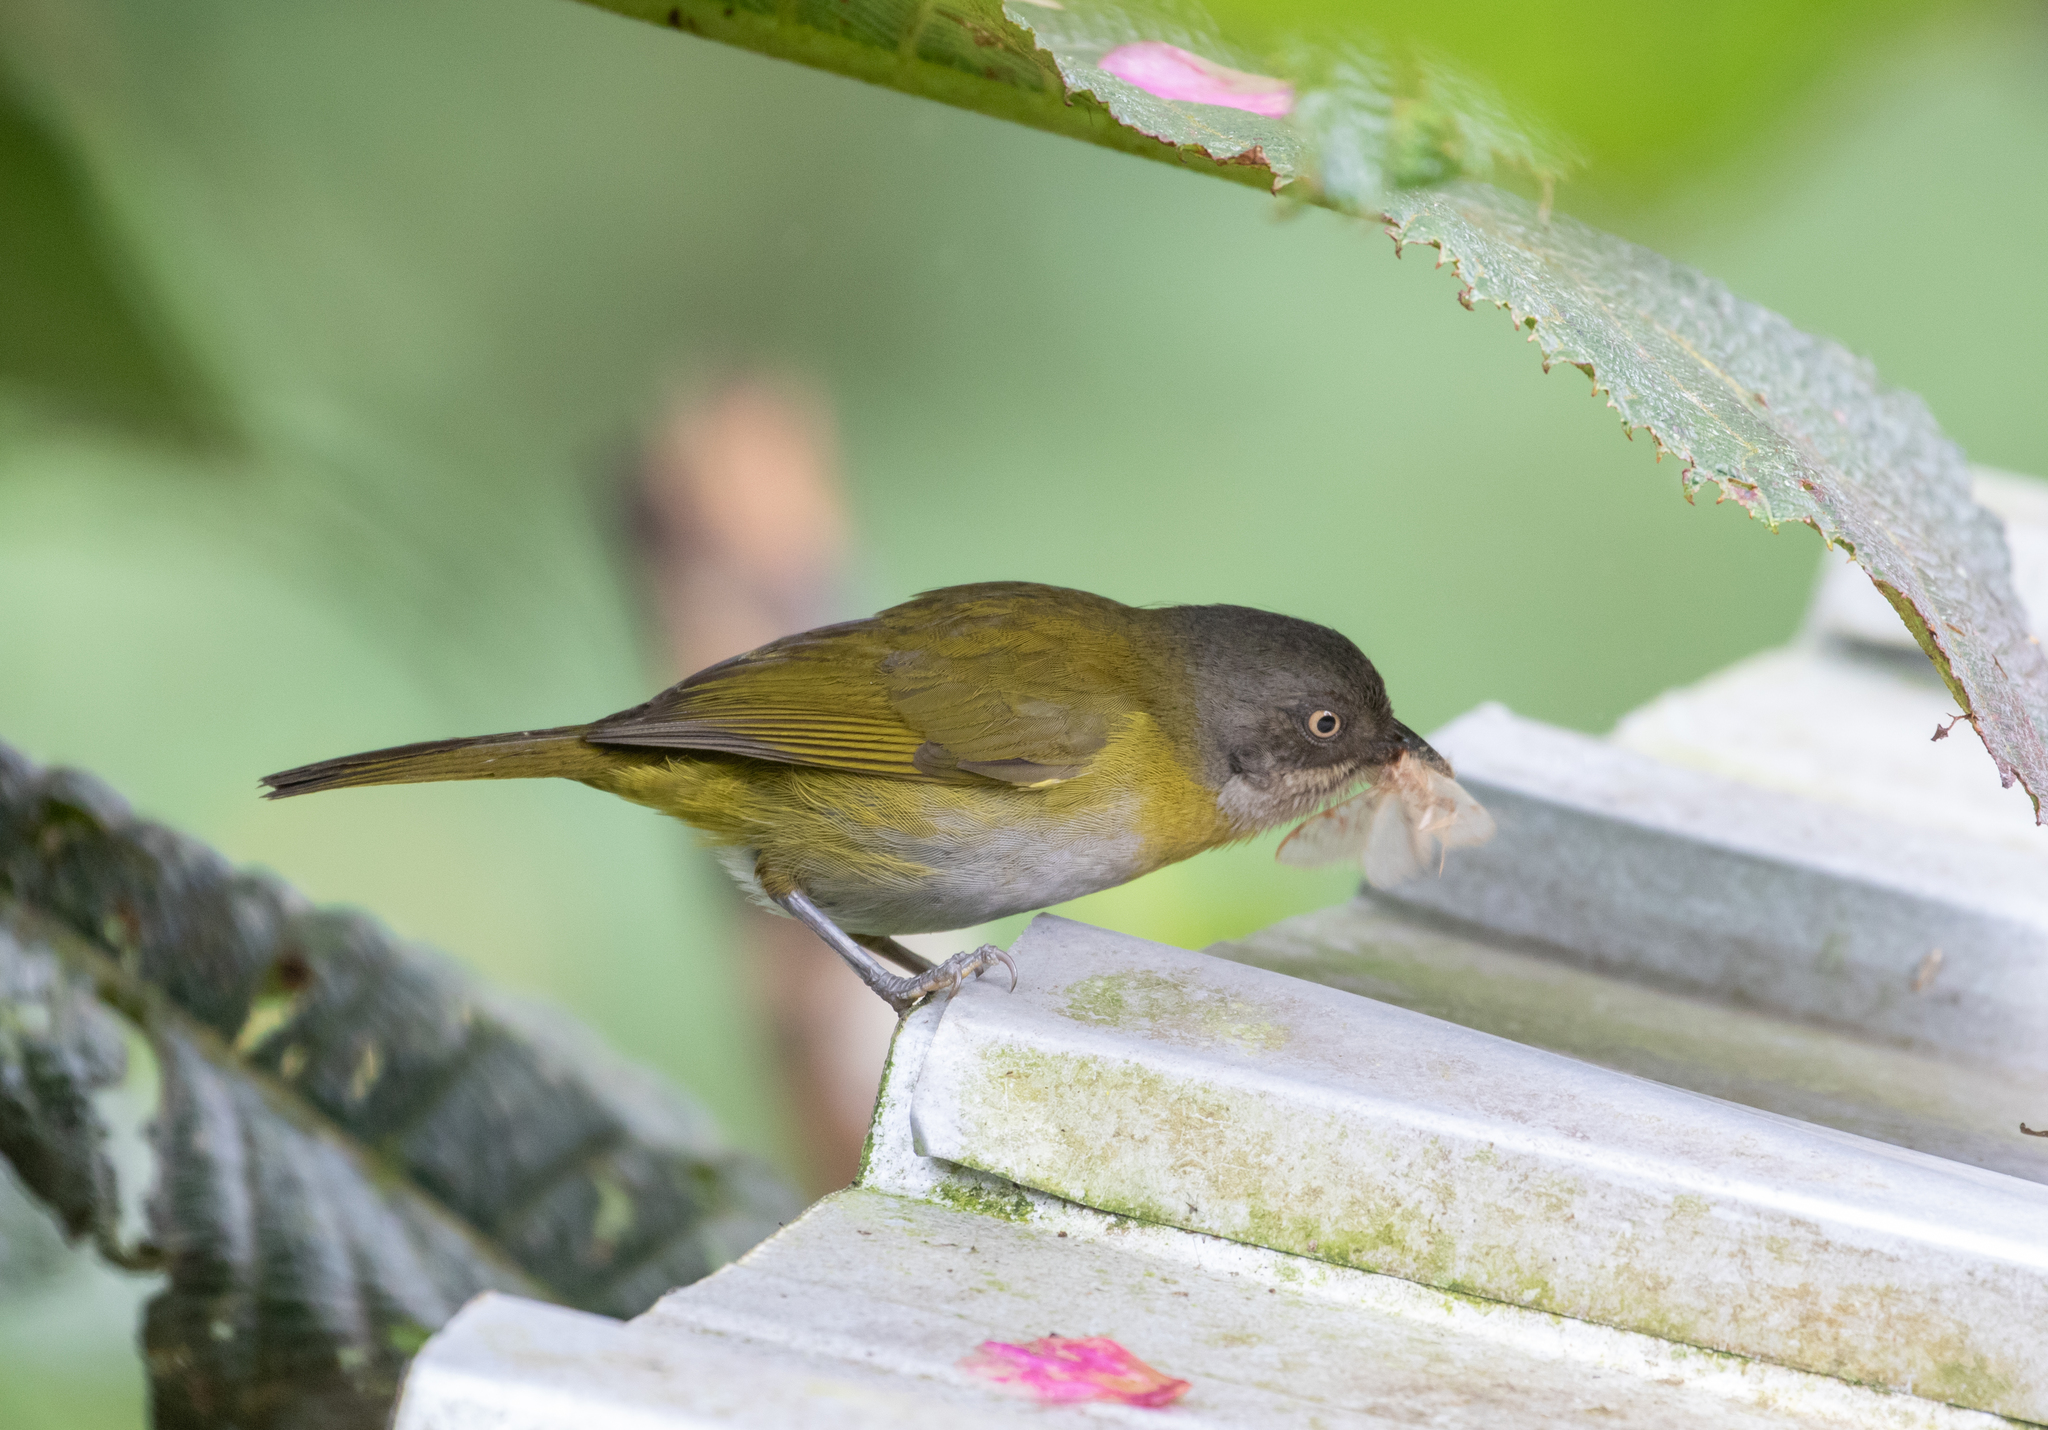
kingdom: Animalia
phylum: Chordata
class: Aves
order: Passeriformes
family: Passerellidae
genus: Chlorospingus
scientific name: Chlorospingus flavopectus
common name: Common chlorospingus
